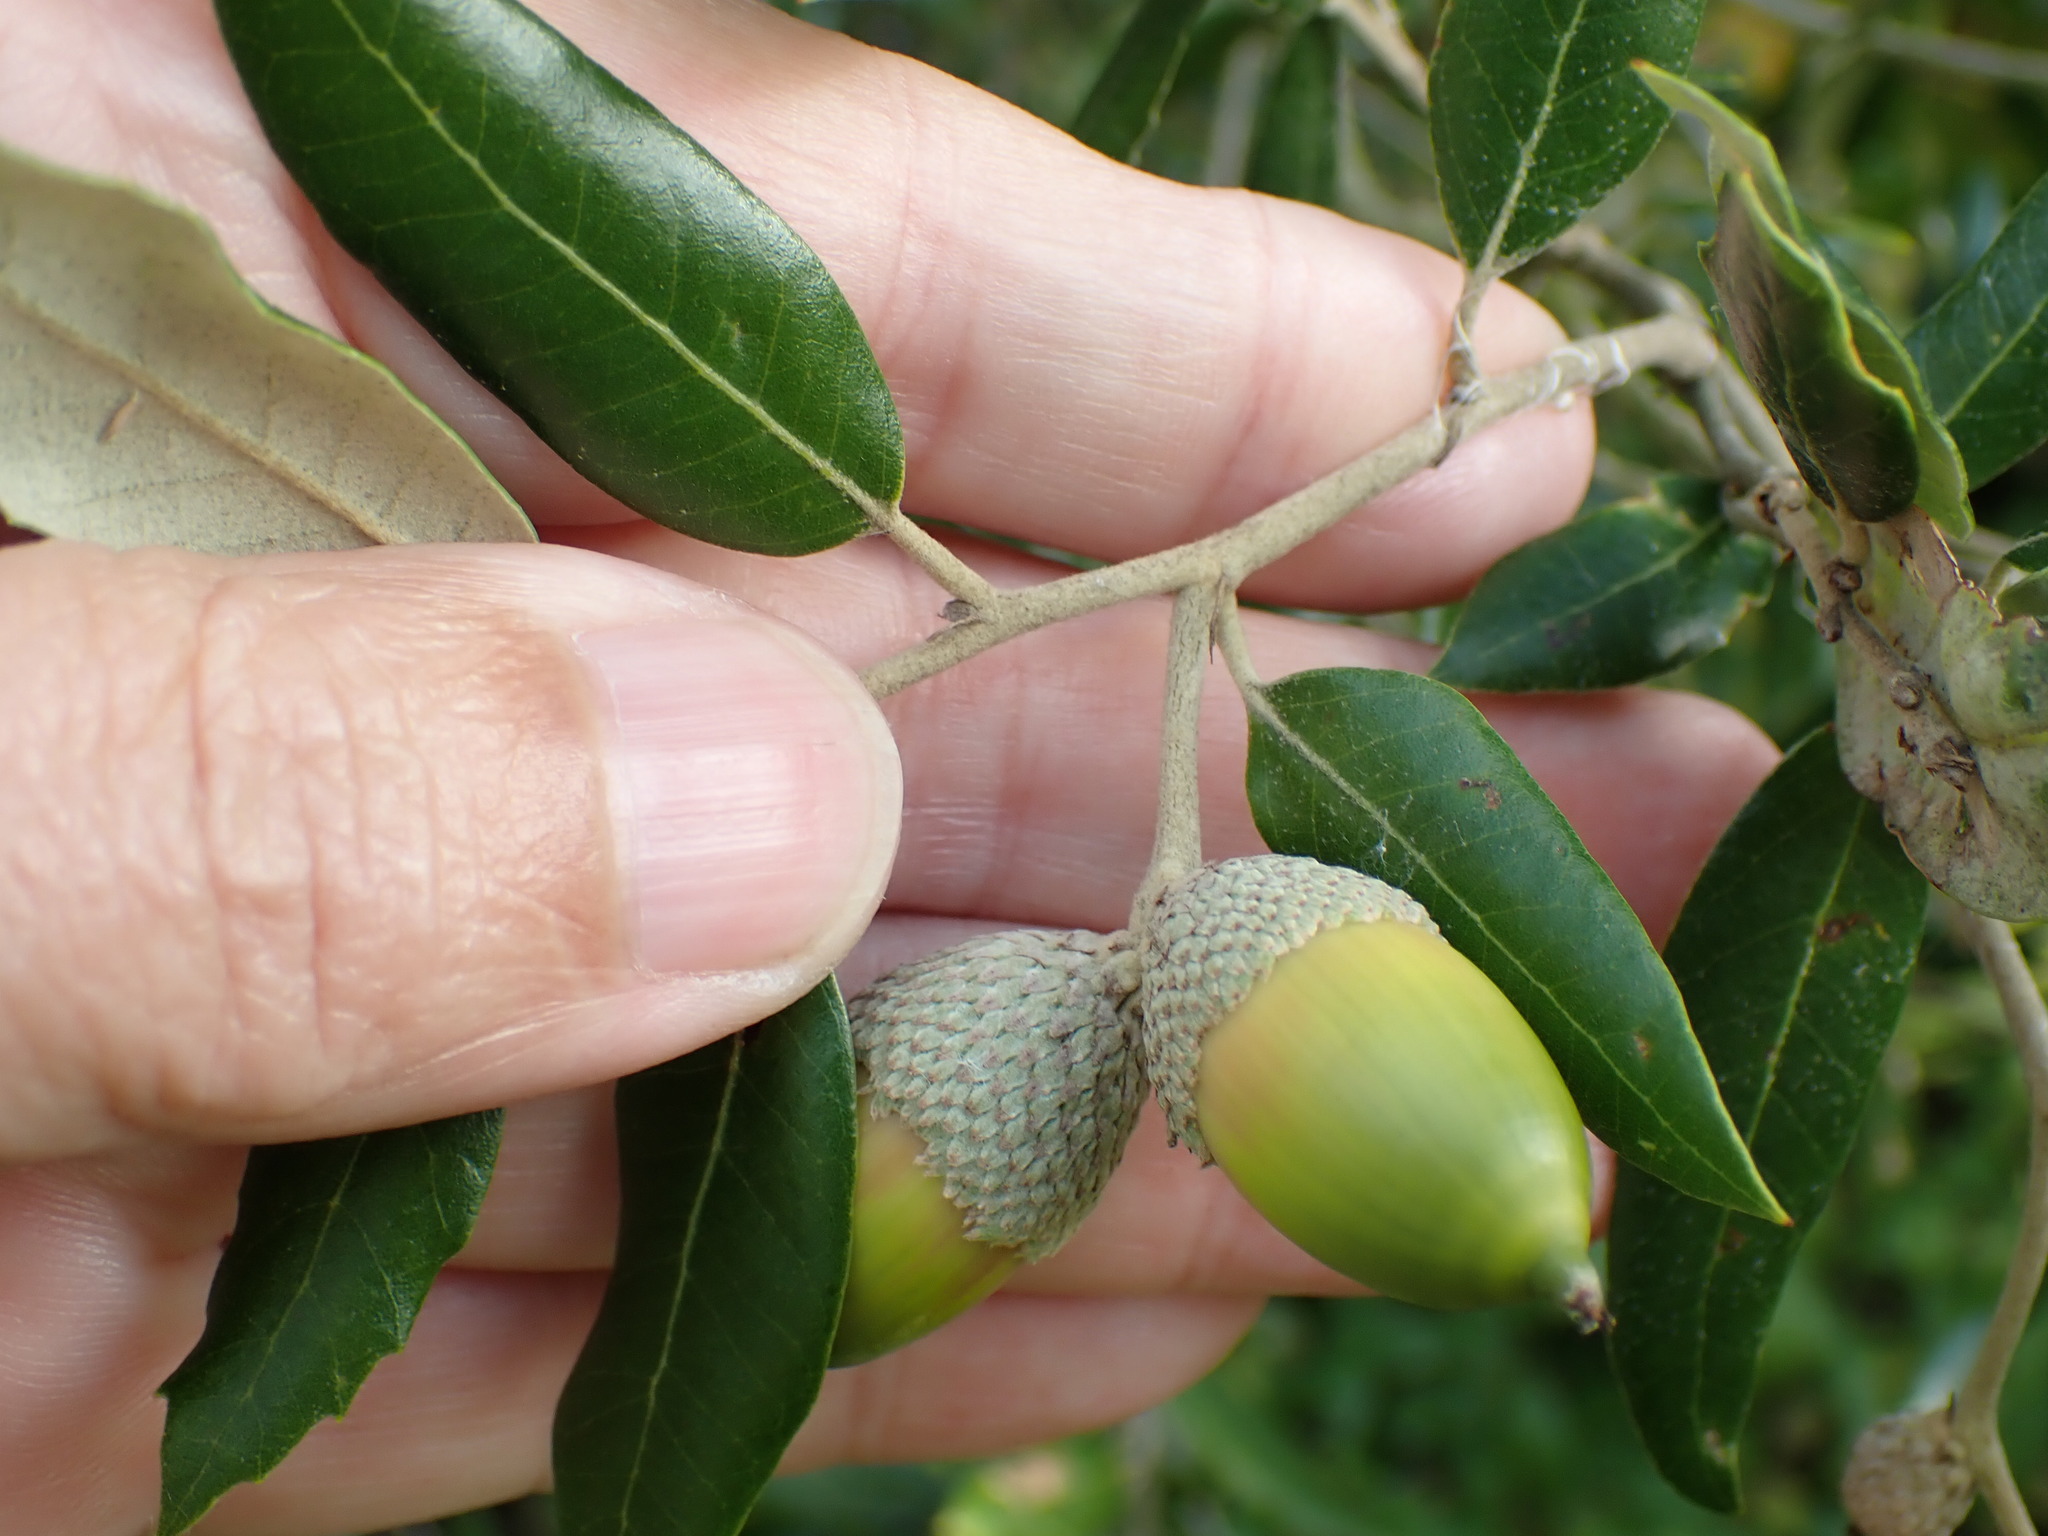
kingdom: Plantae
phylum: Tracheophyta
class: Magnoliopsida
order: Fagales
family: Fagaceae
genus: Quercus
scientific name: Quercus ilex
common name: Evergreen oak
